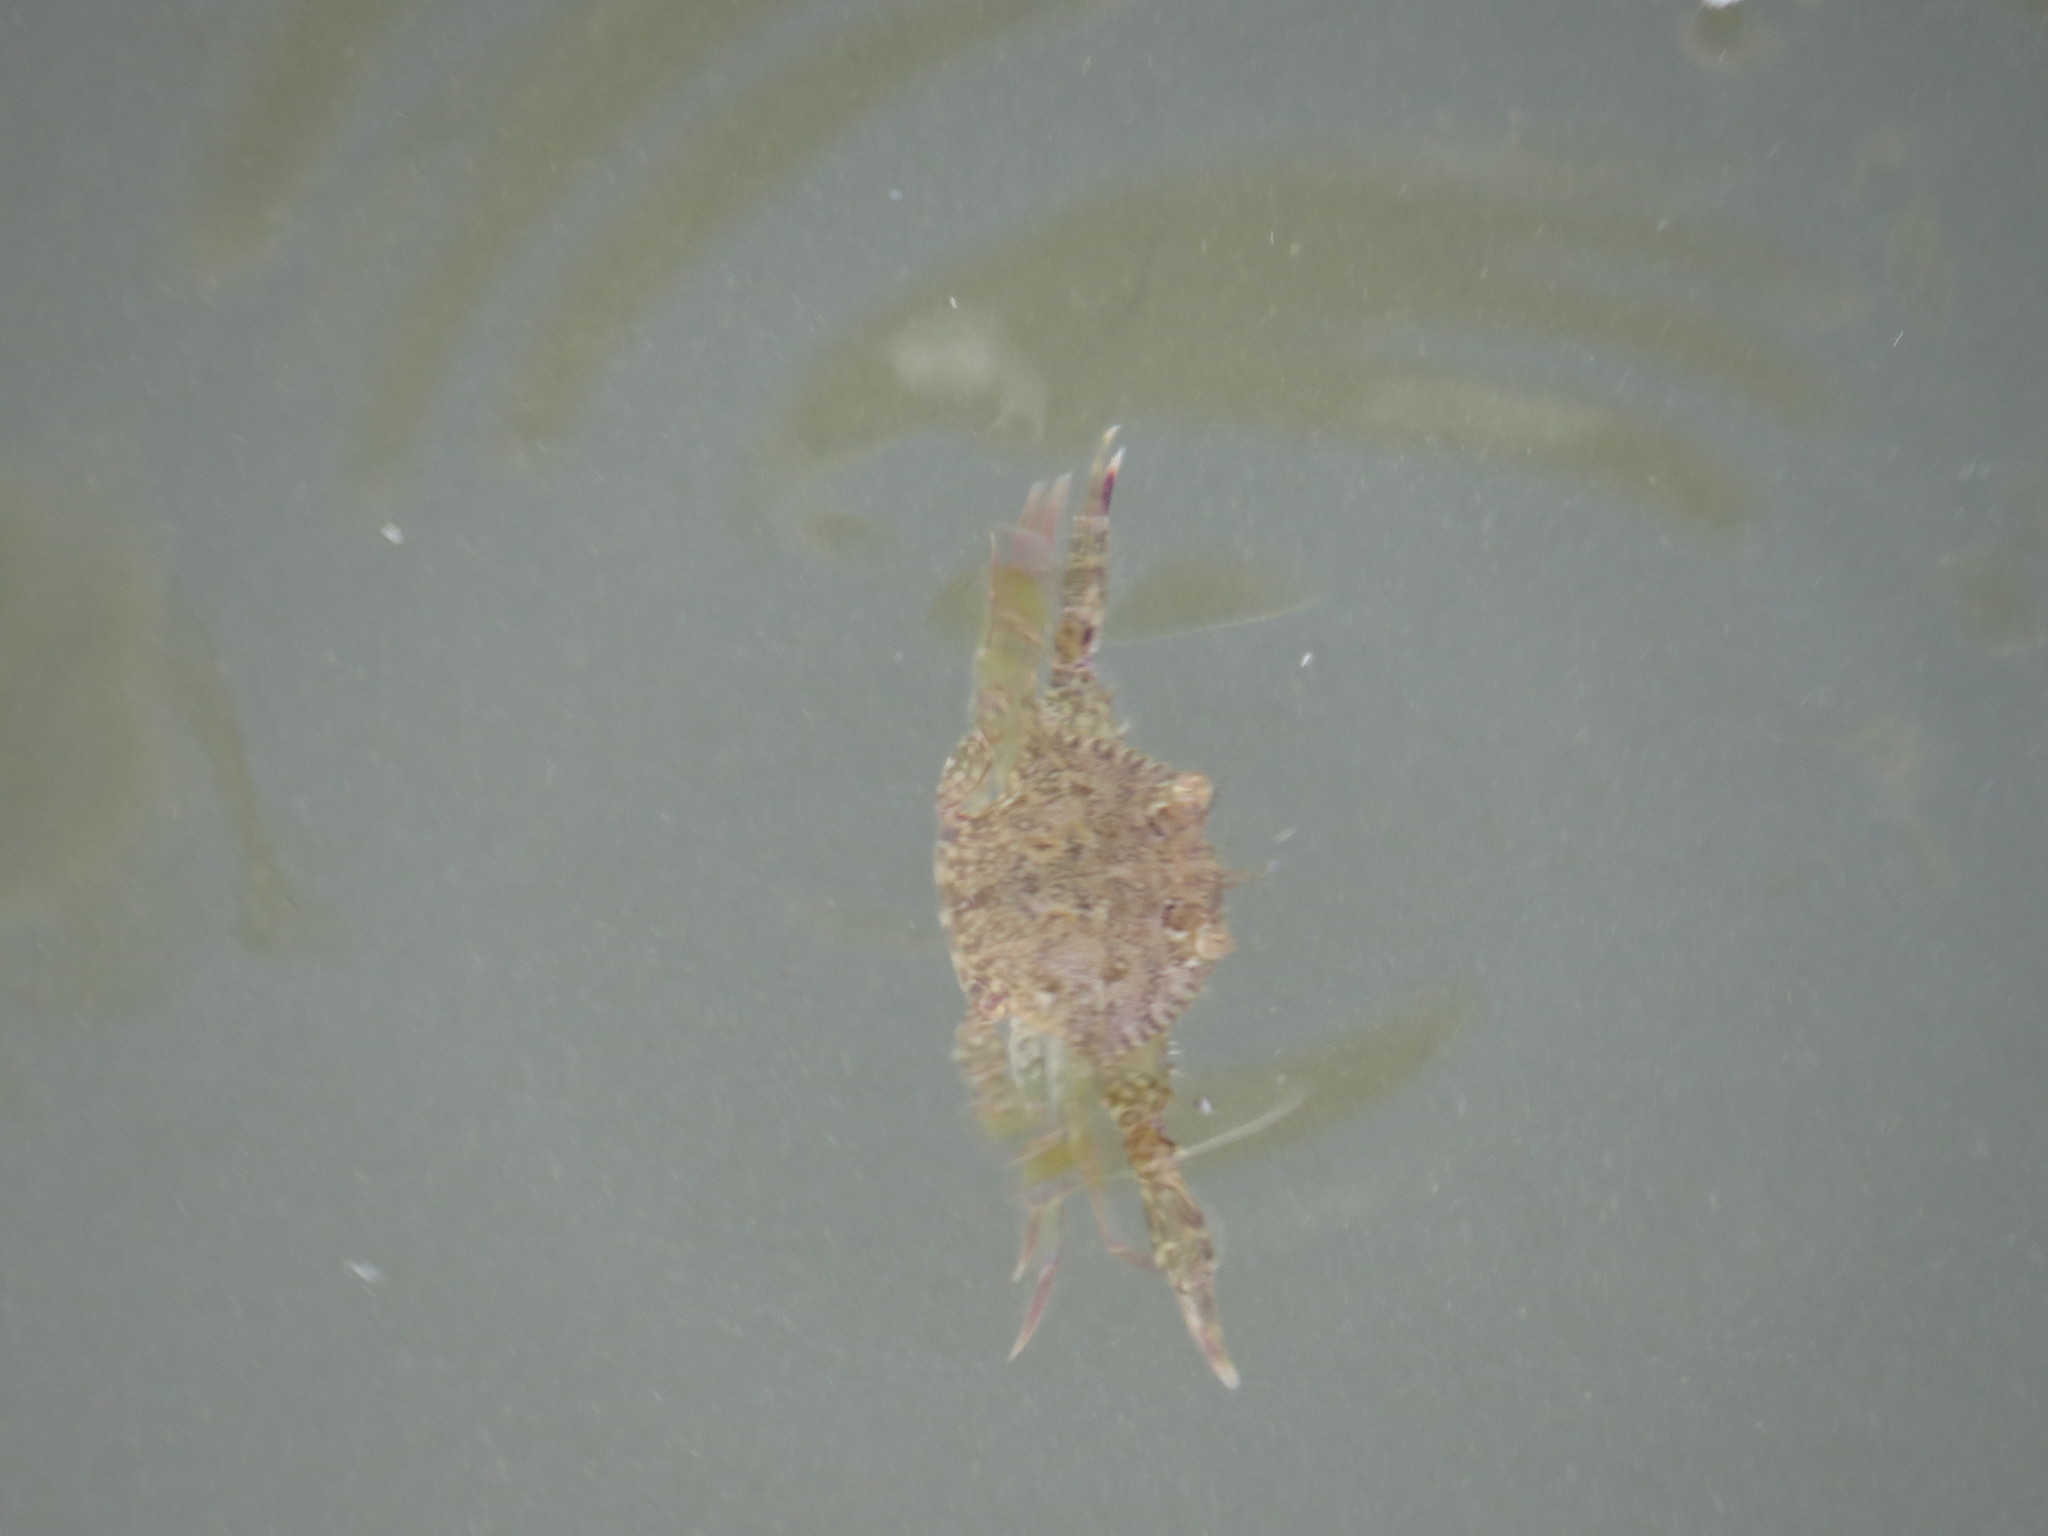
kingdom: Animalia
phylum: Arthropoda
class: Malacostraca
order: Decapoda
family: Portunidae
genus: Portunus
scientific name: Portunus armatus
